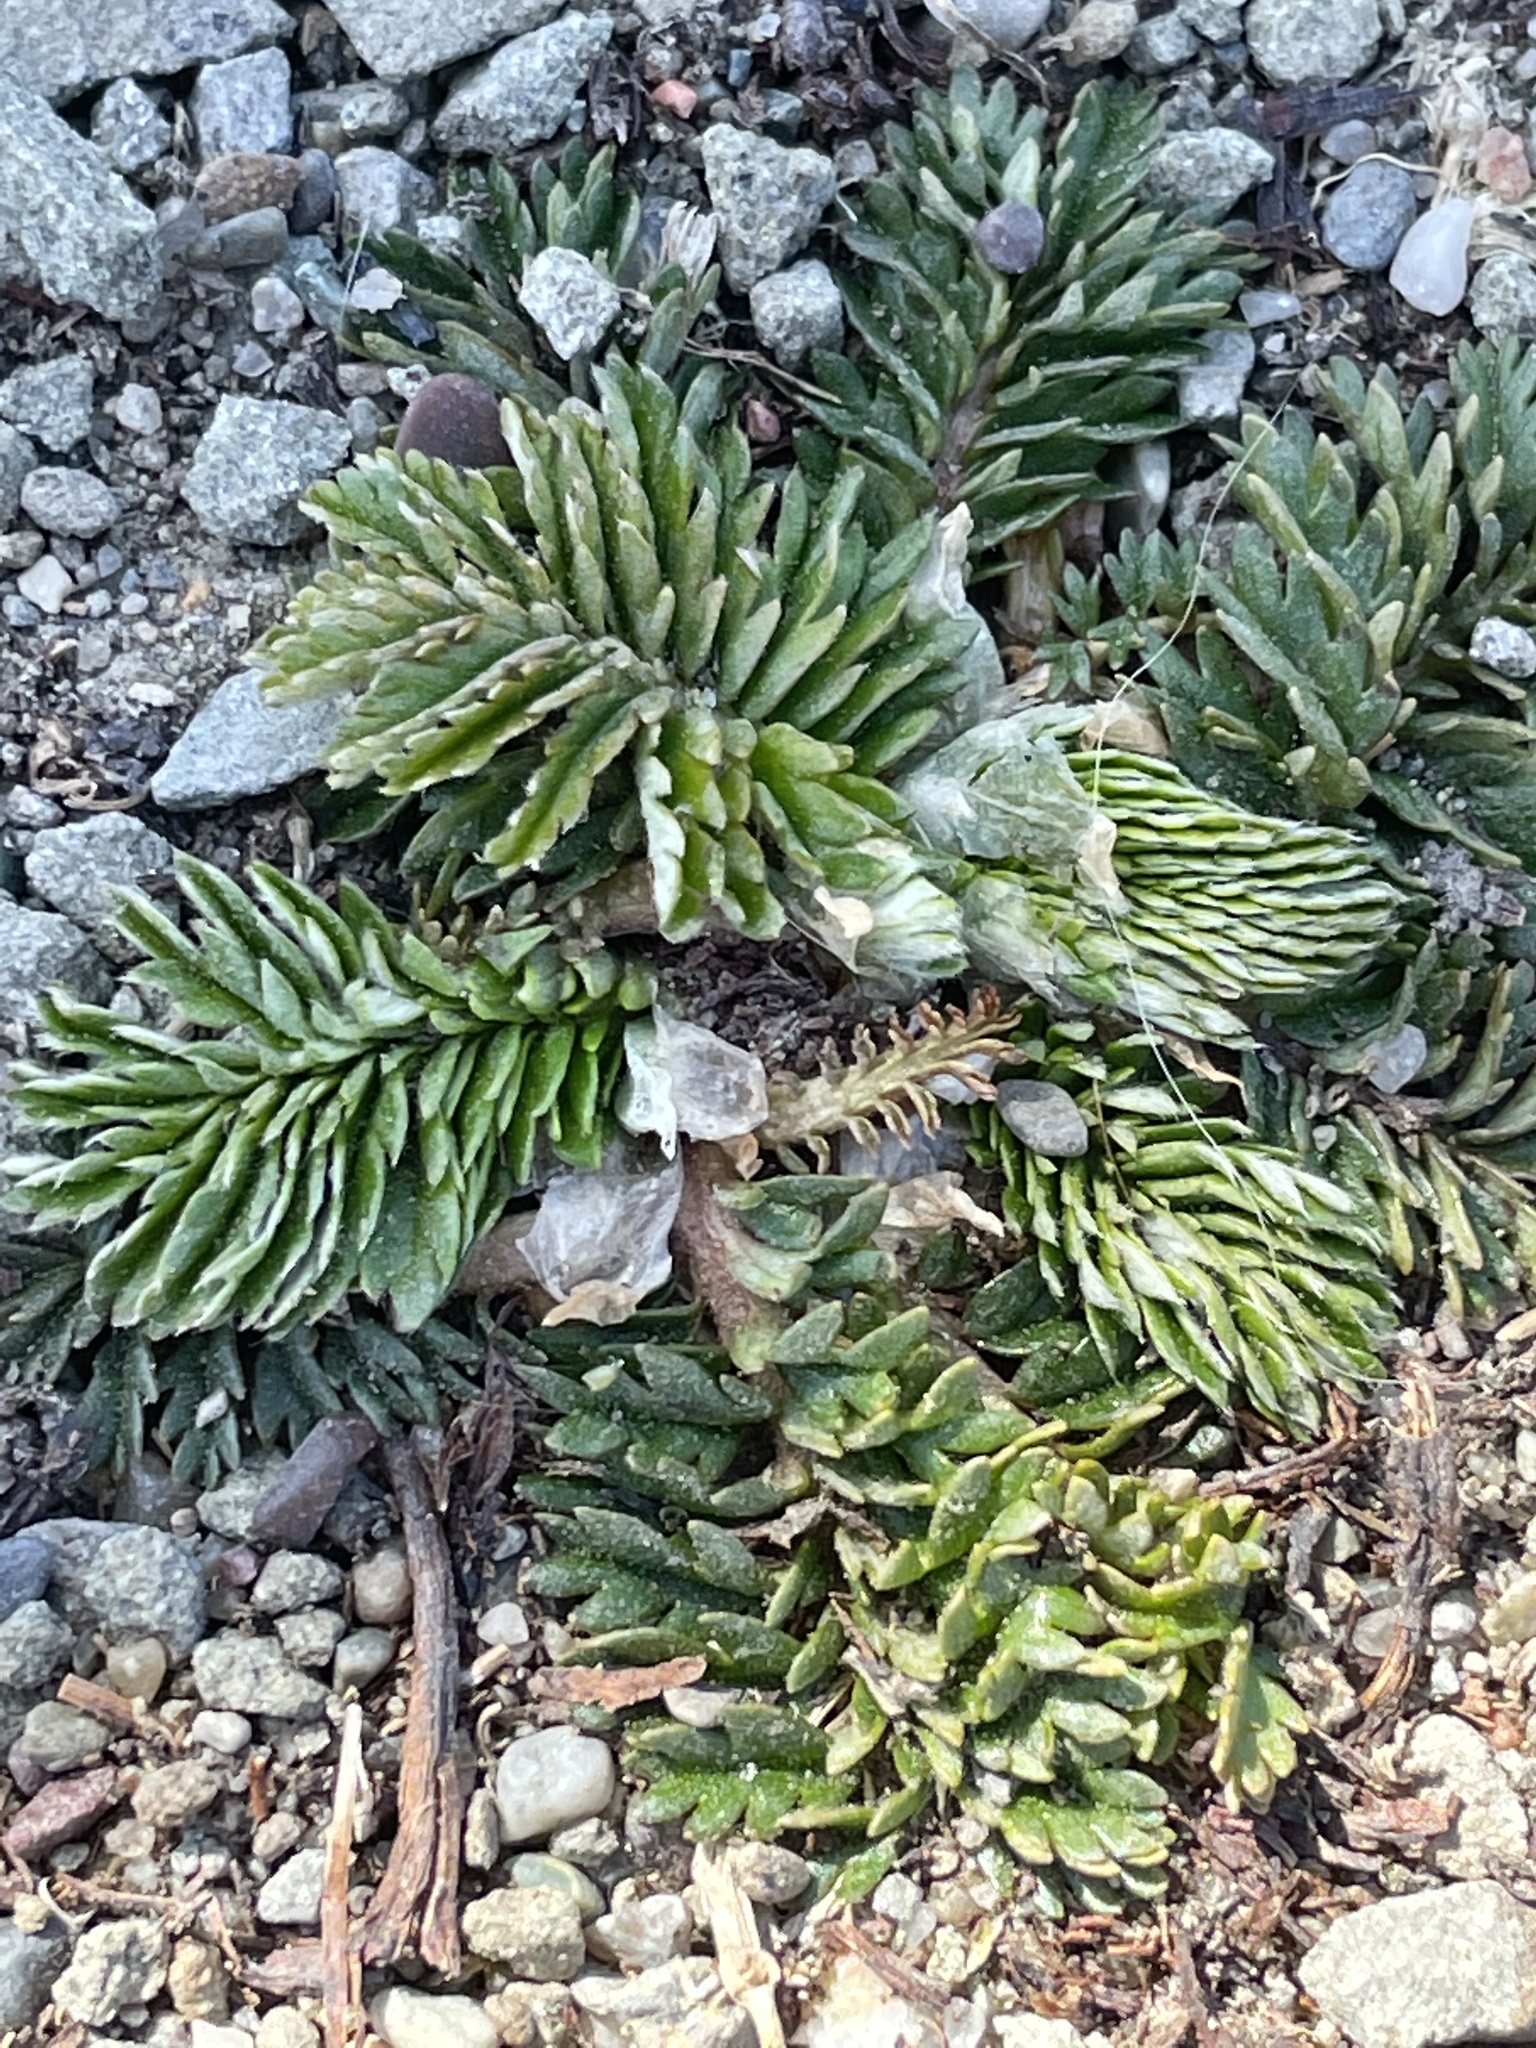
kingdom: Plantae
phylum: Tracheophyta
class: Magnoliopsida
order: Rosales
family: Rosaceae
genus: Argentina
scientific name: Argentina anserina
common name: Common silverweed
